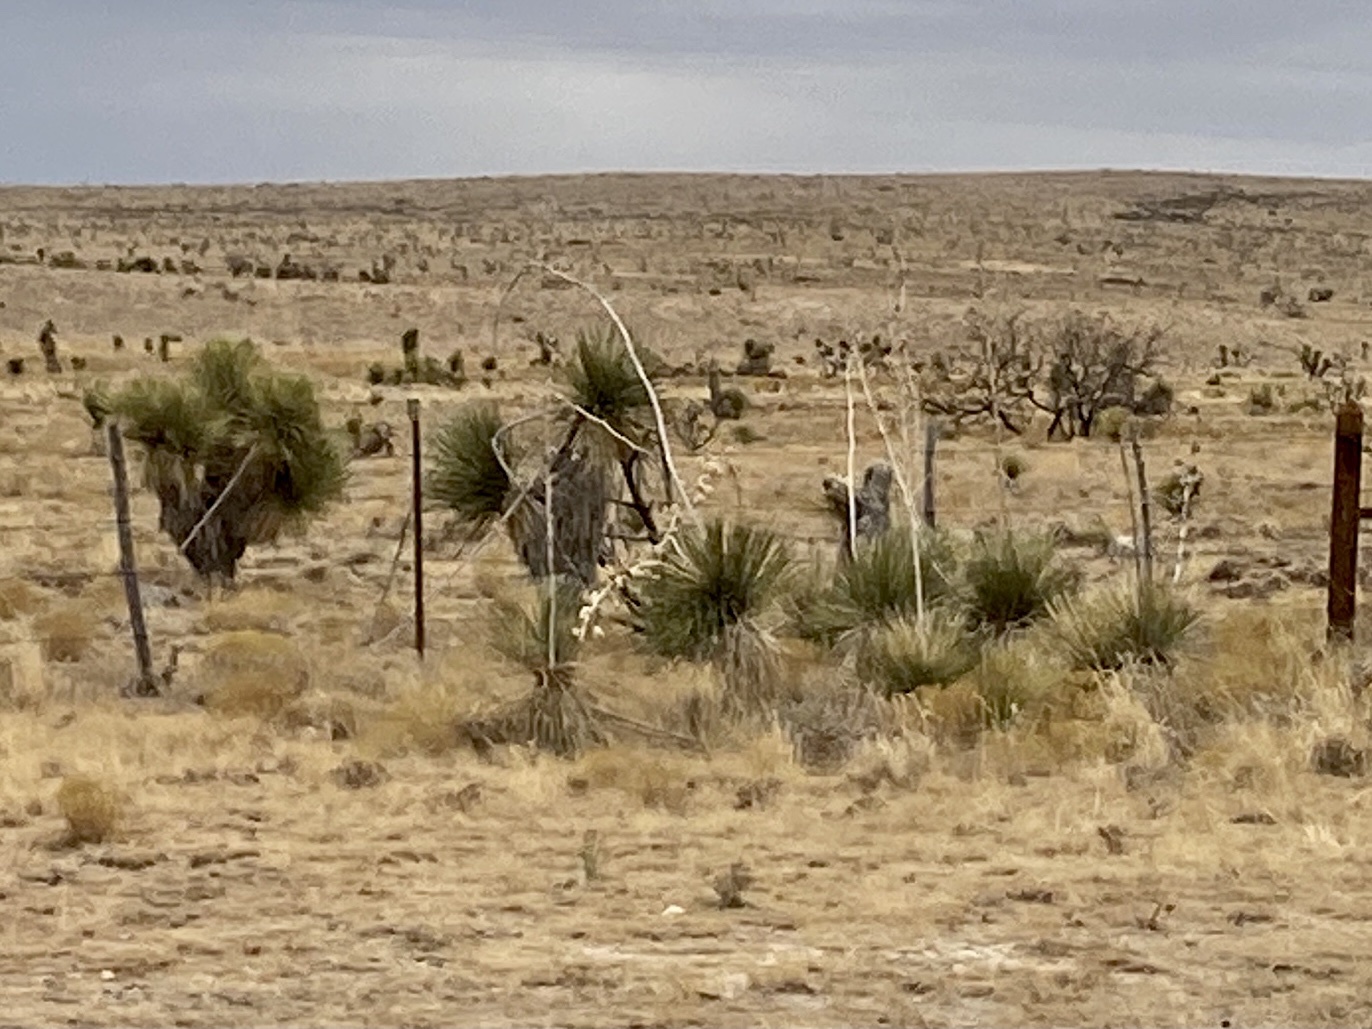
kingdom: Plantae
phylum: Tracheophyta
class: Liliopsida
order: Asparagales
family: Asparagaceae
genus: Yucca
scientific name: Yucca elata
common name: Palmella
